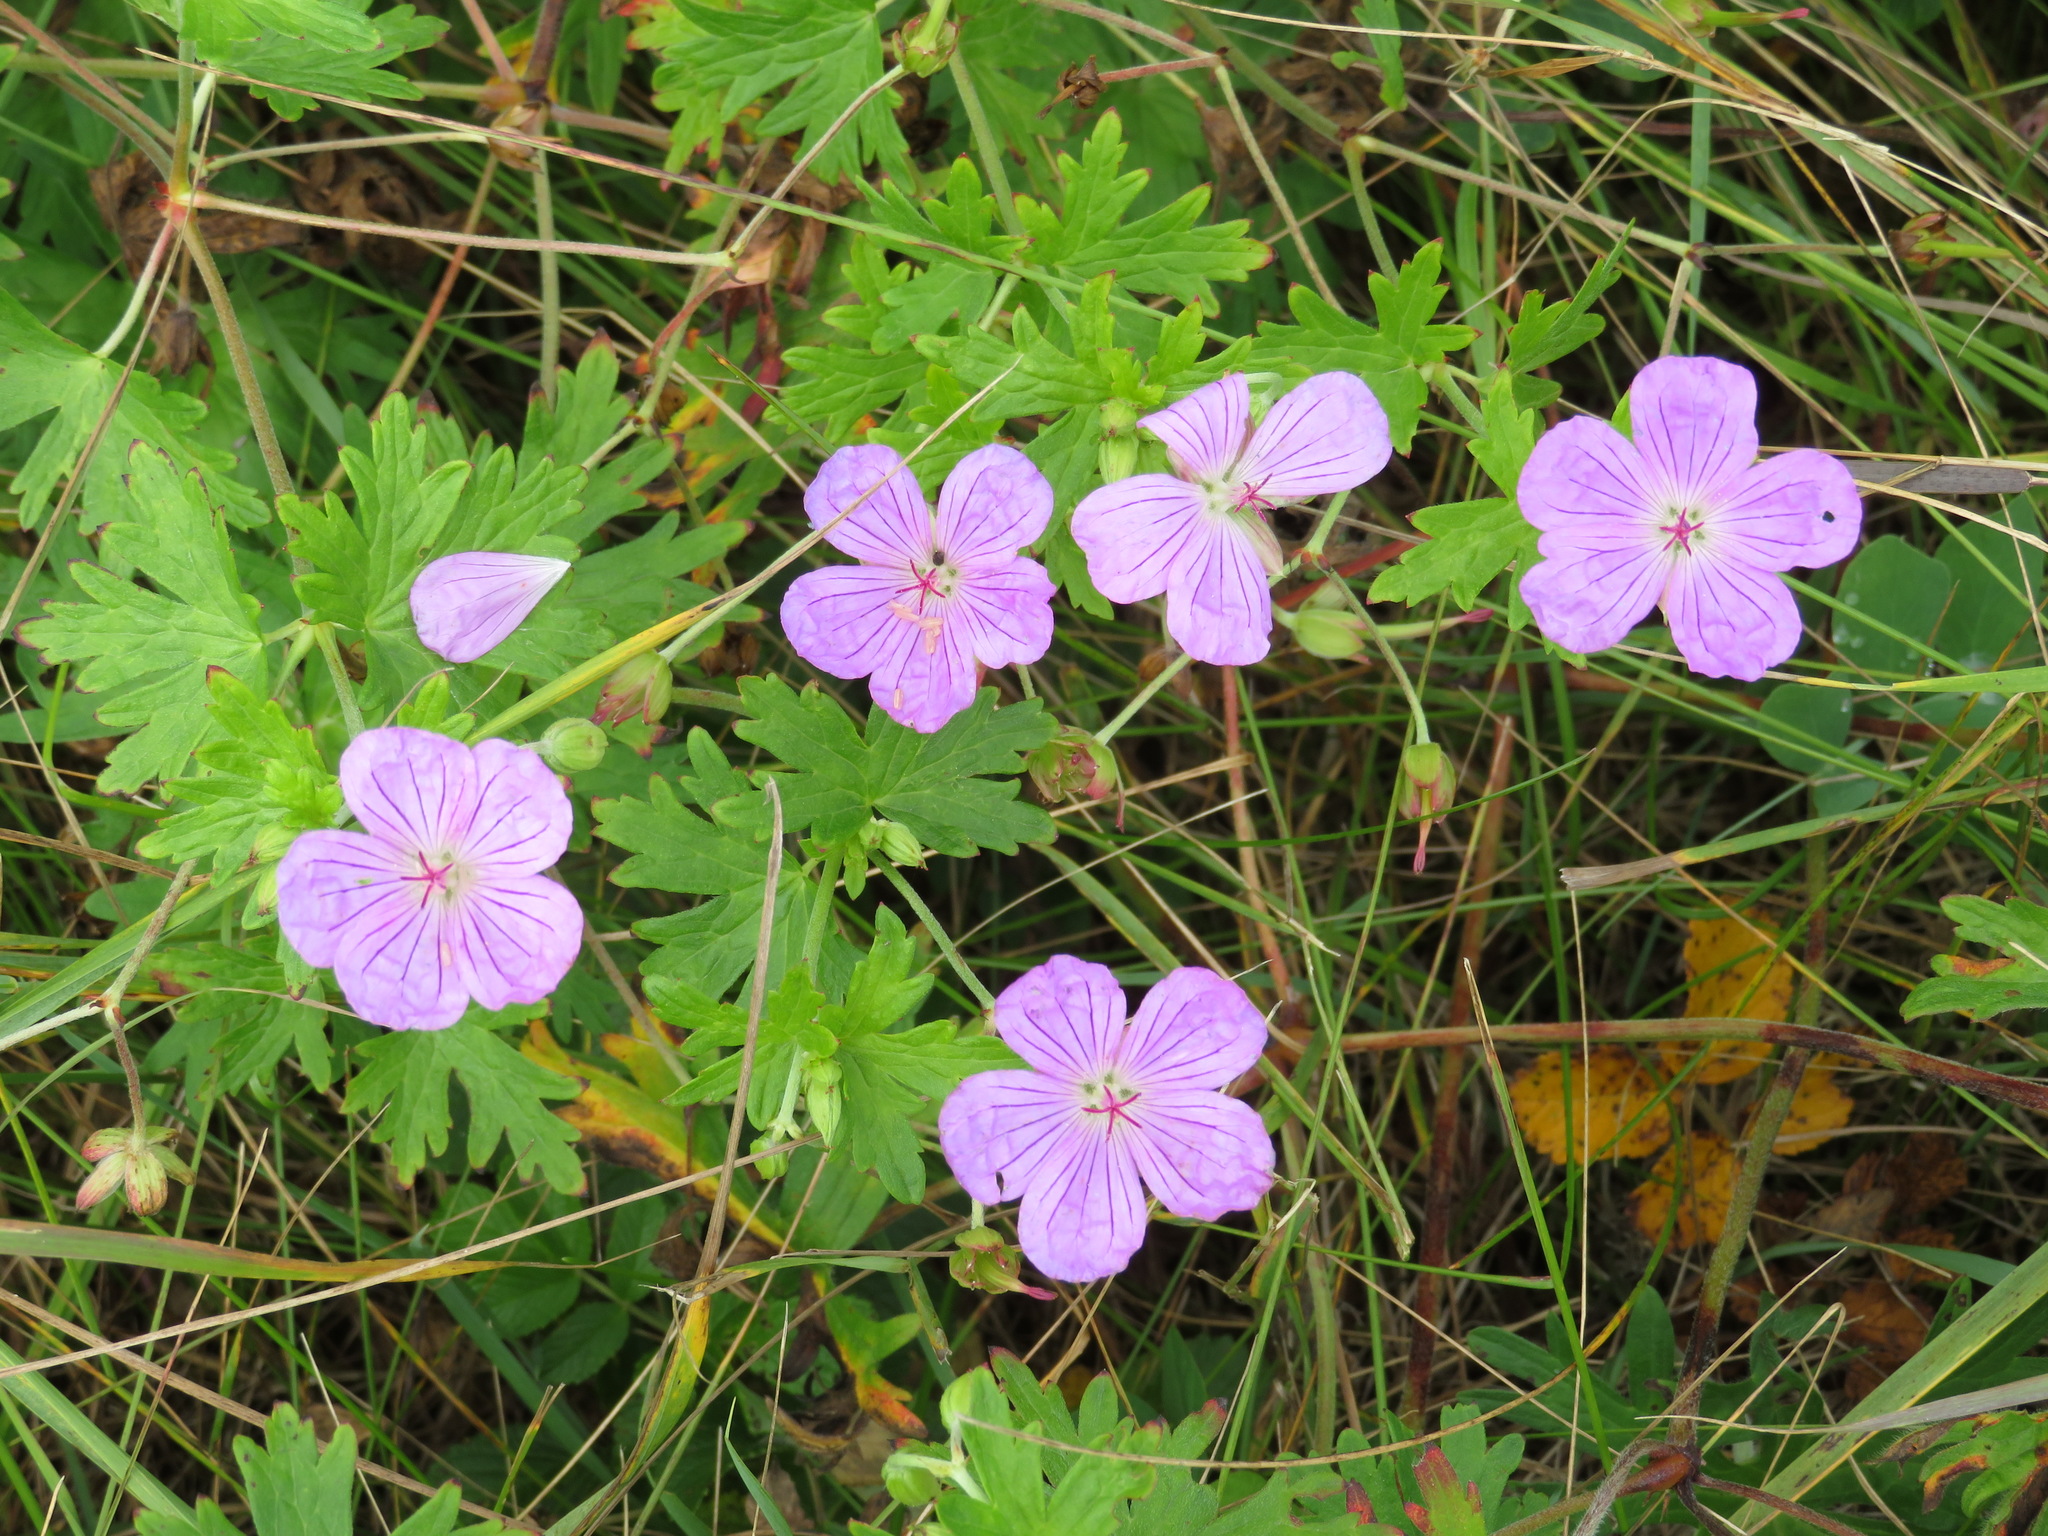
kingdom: Plantae
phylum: Tracheophyta
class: Magnoliopsida
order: Geraniales
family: Geraniaceae
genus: Geranium
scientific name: Geranium yesoense
